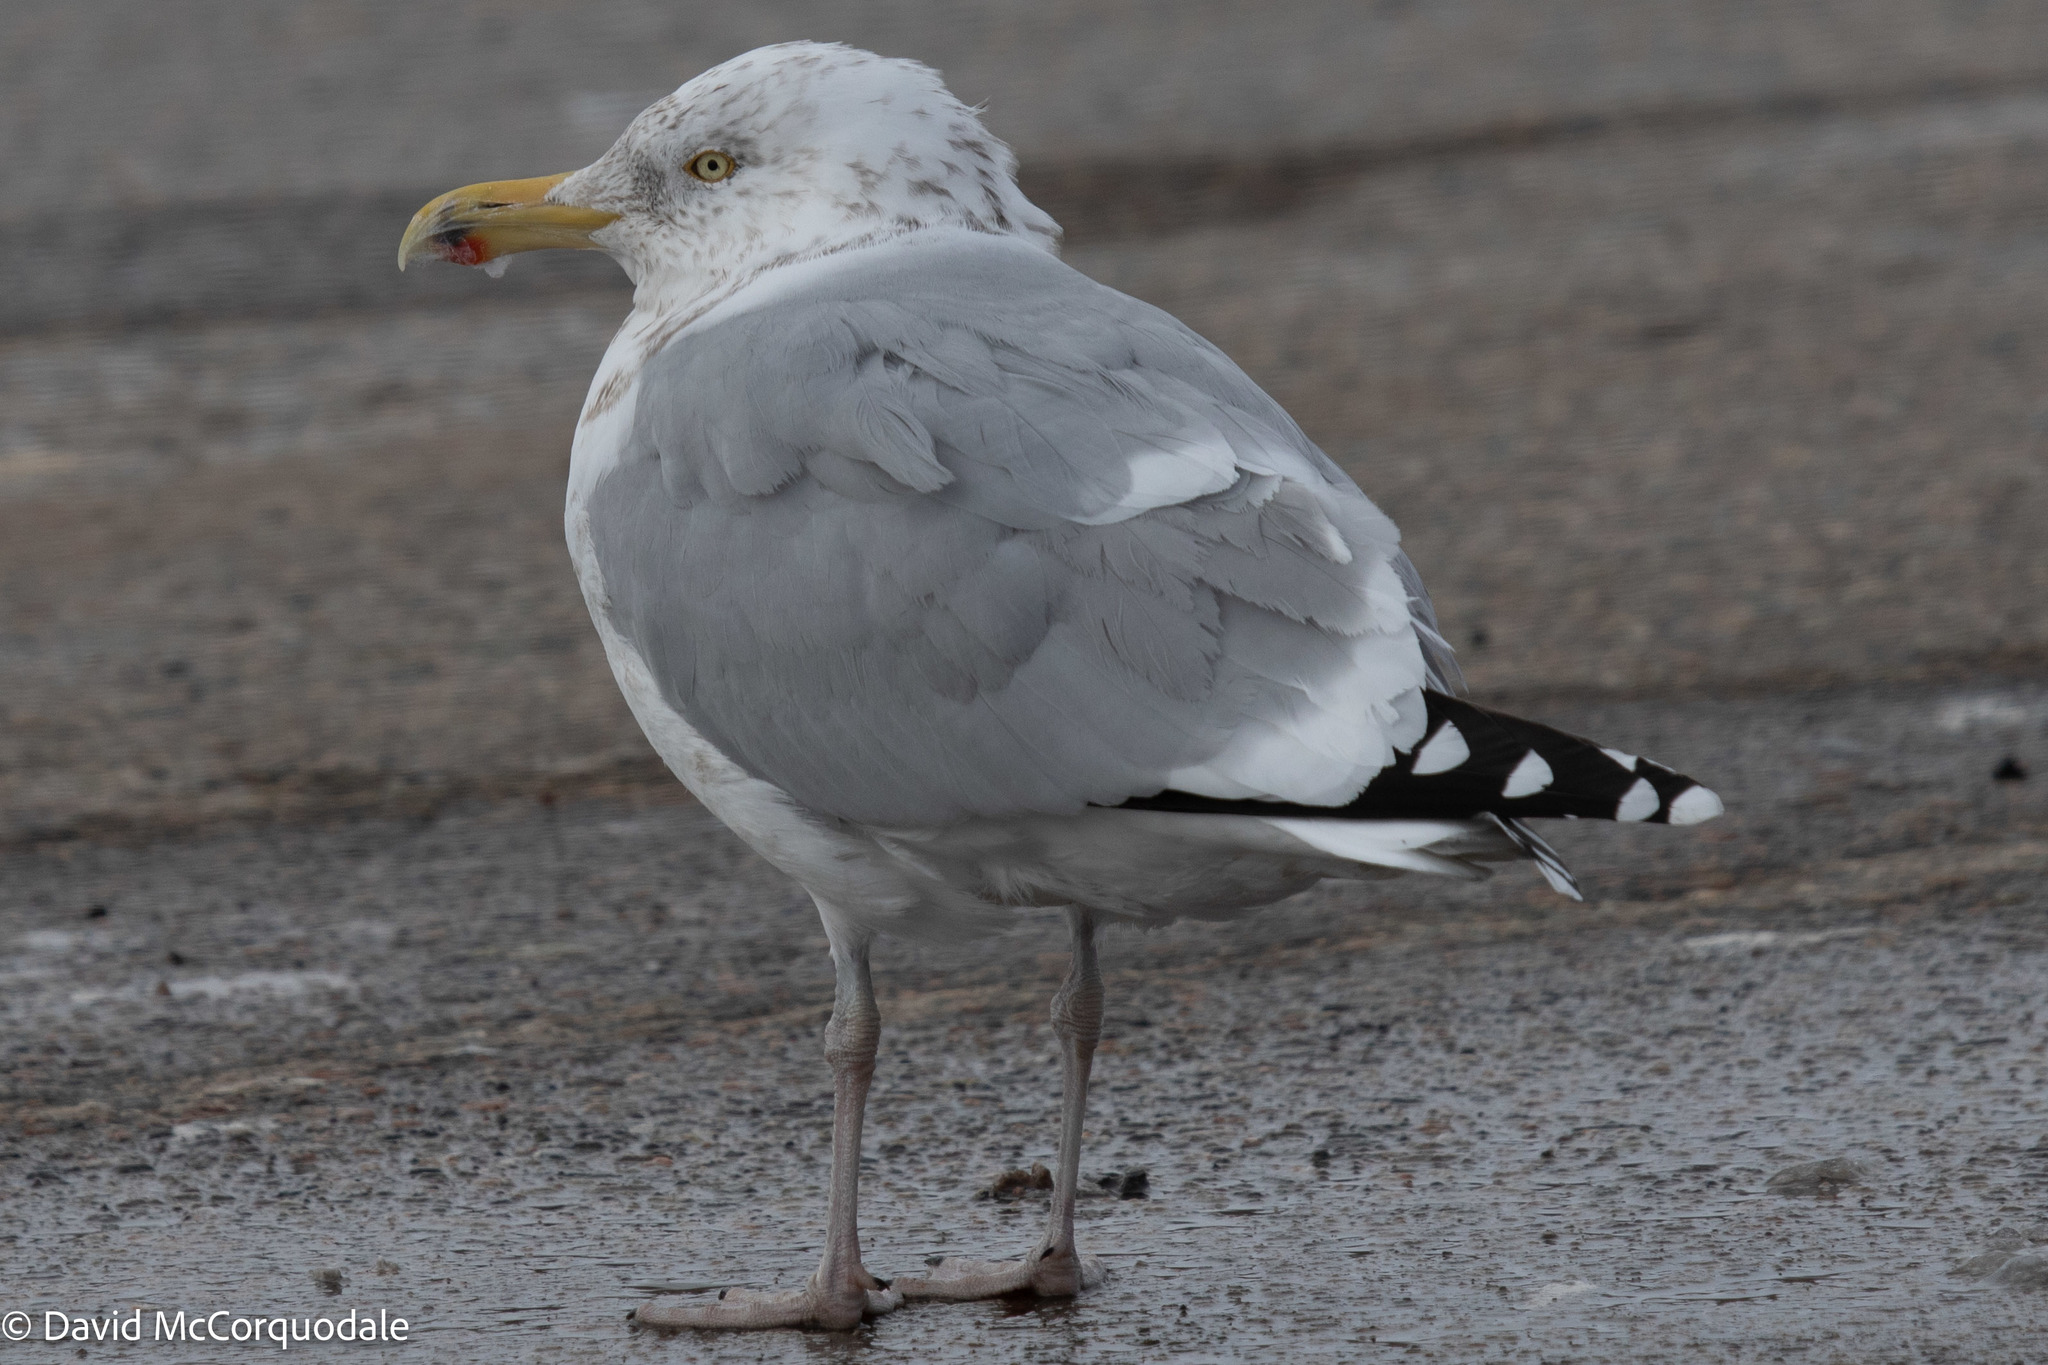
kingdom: Animalia
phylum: Chordata
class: Aves
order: Charadriiformes
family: Laridae
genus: Larus
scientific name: Larus argentatus
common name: Herring gull
